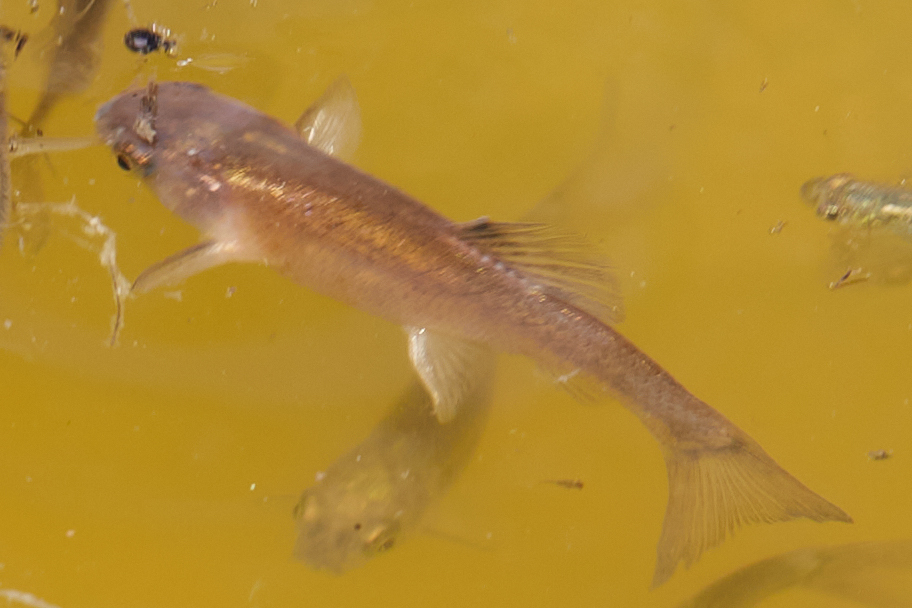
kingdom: Animalia
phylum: Chordata
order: Cypriniformes
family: Cyprinidae
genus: Pimephales
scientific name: Pimephales promelas
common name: Fathead minnow
